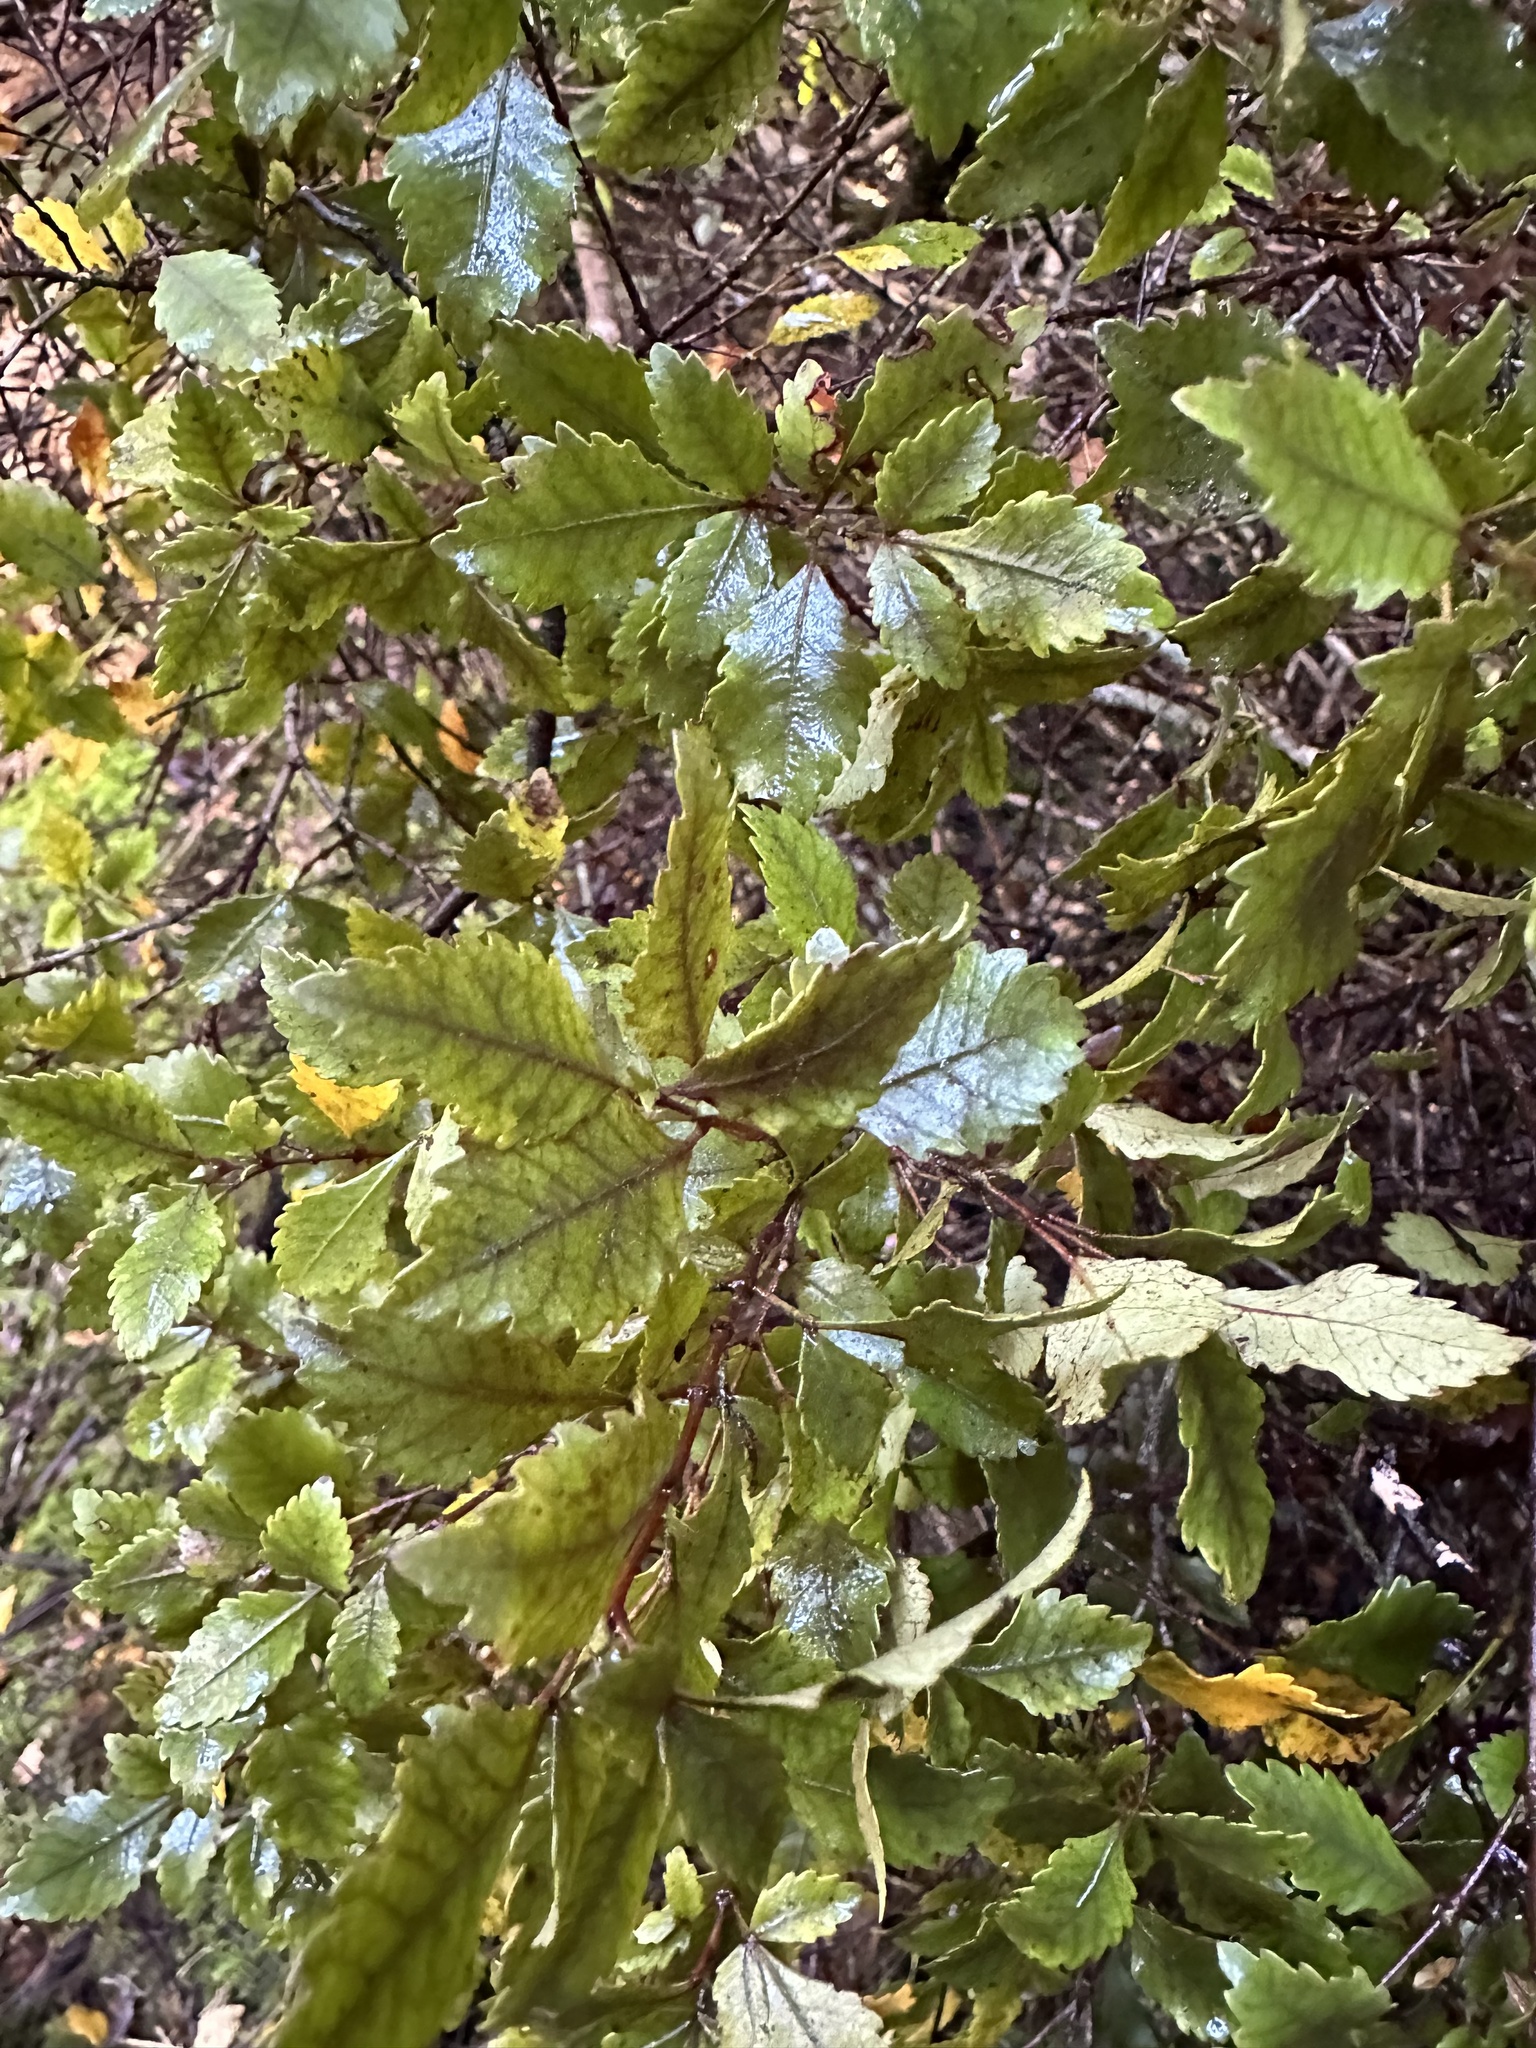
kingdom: Plantae
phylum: Tracheophyta
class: Magnoliopsida
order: Oxalidales
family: Cunoniaceae
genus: Pterophylla
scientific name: Pterophylla racemosa
